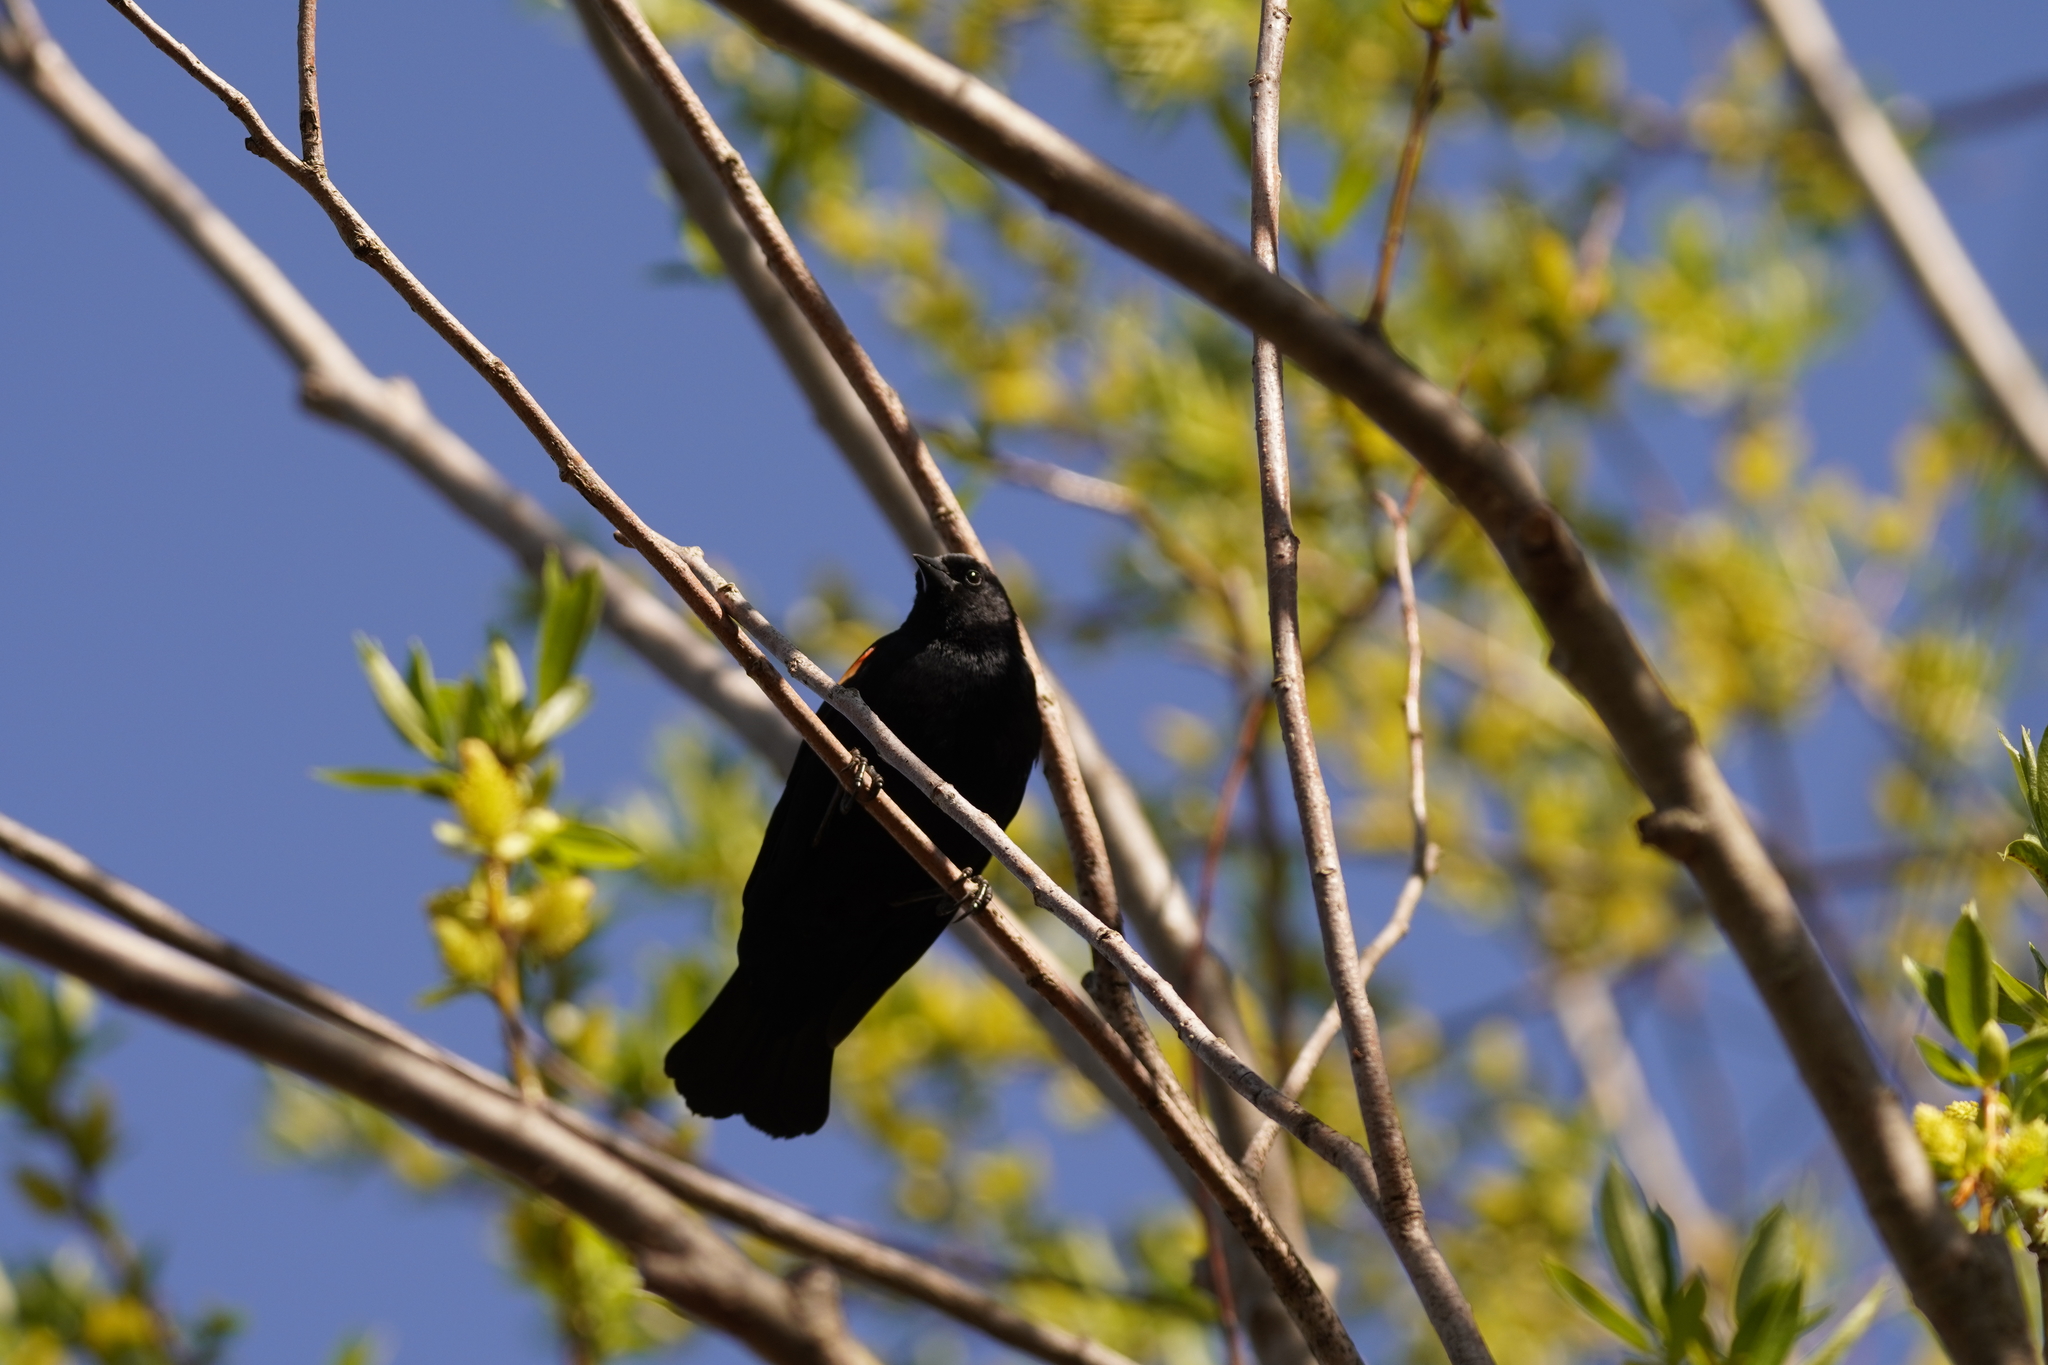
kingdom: Animalia
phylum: Chordata
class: Aves
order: Passeriformes
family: Icteridae
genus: Agelaius
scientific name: Agelaius phoeniceus
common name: Red-winged blackbird
